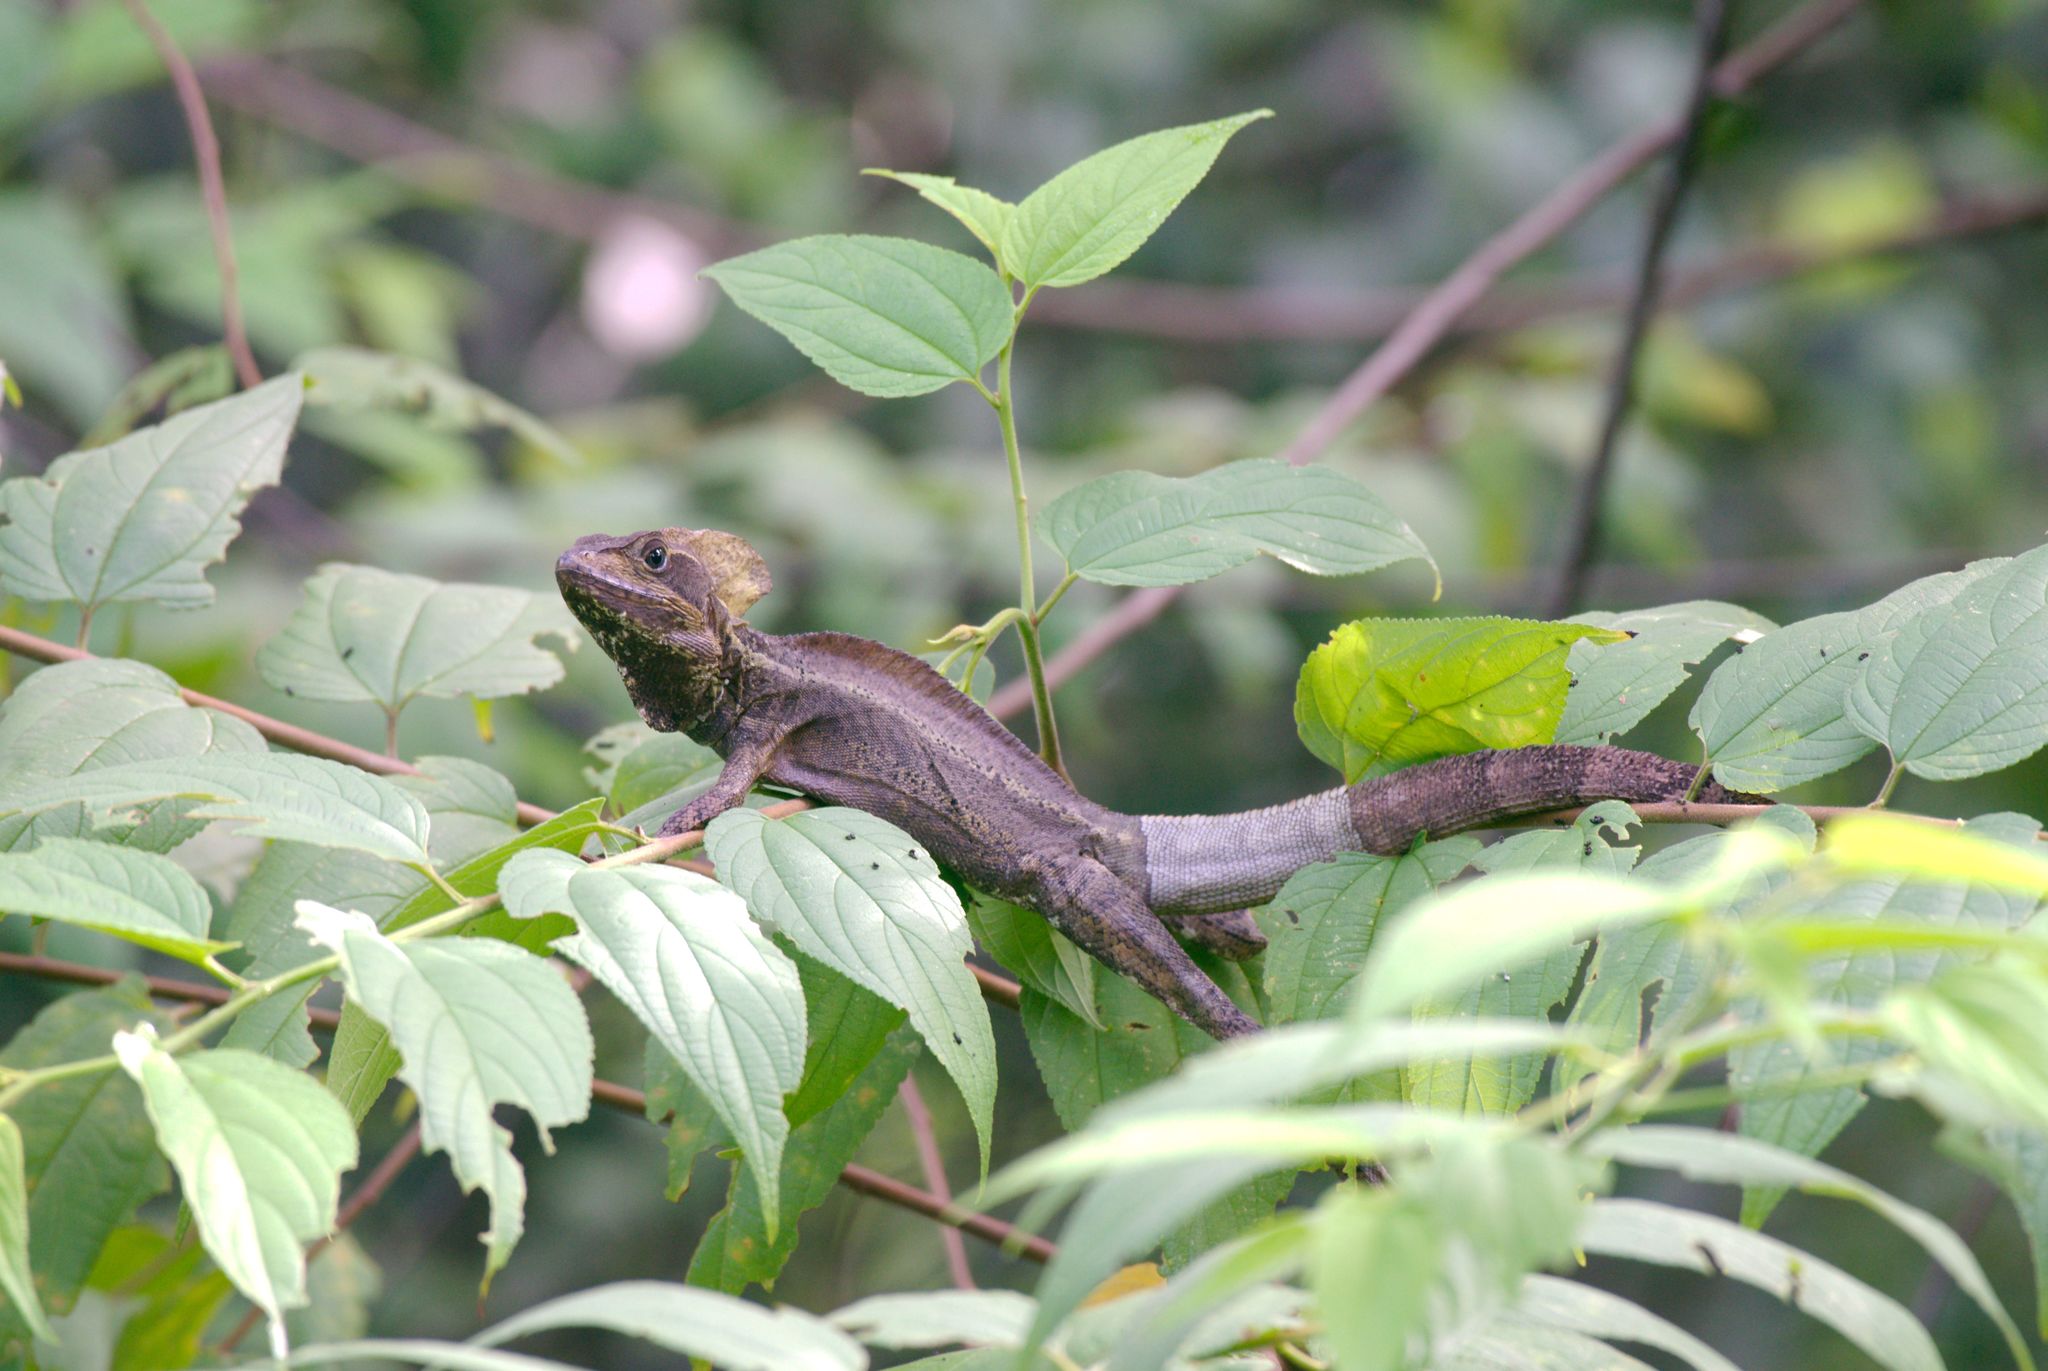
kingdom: Animalia
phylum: Chordata
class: Squamata
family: Corytophanidae
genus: Basiliscus
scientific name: Basiliscus vittatus
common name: Brown basilisk
